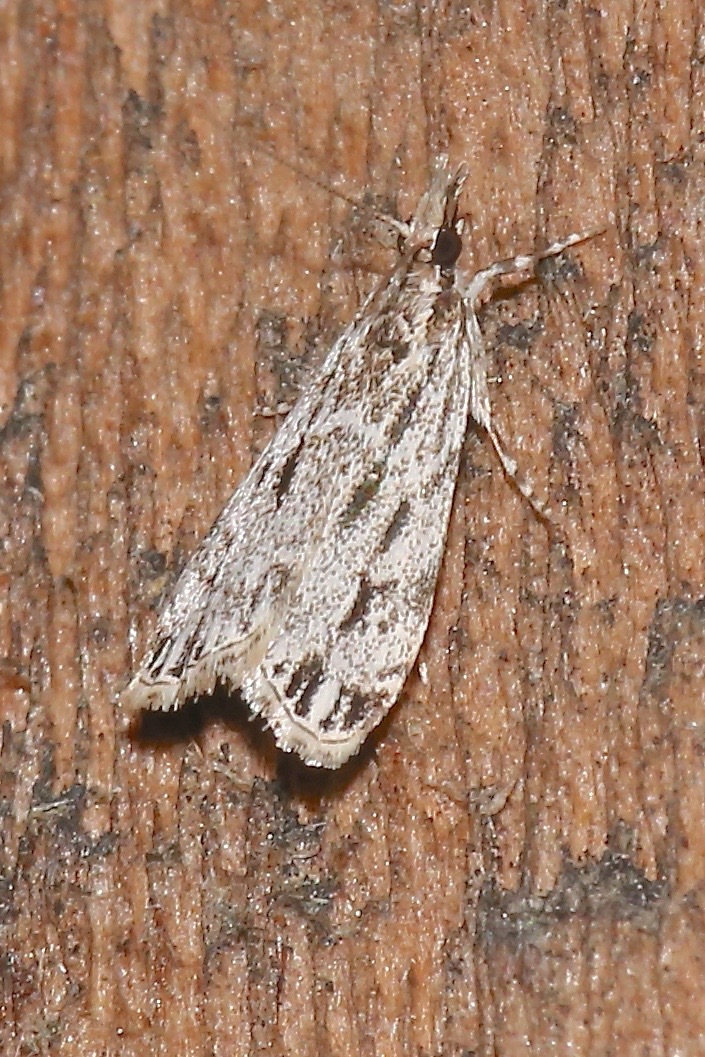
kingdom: Animalia
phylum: Arthropoda
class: Insecta
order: Lepidoptera
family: Crambidae
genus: Eudonia
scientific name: Eudonia strigalis
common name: Striped eudonia moth
